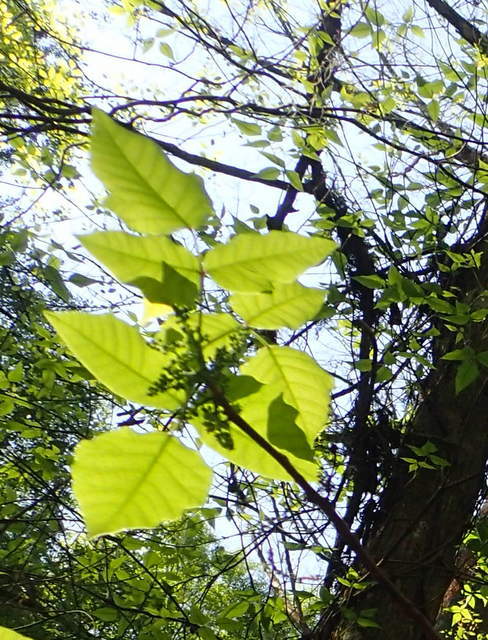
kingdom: Plantae
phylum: Tracheophyta
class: Magnoliopsida
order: Sapindales
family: Anacardiaceae
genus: Toxicodendron
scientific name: Toxicodendron radicans
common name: Poison ivy
